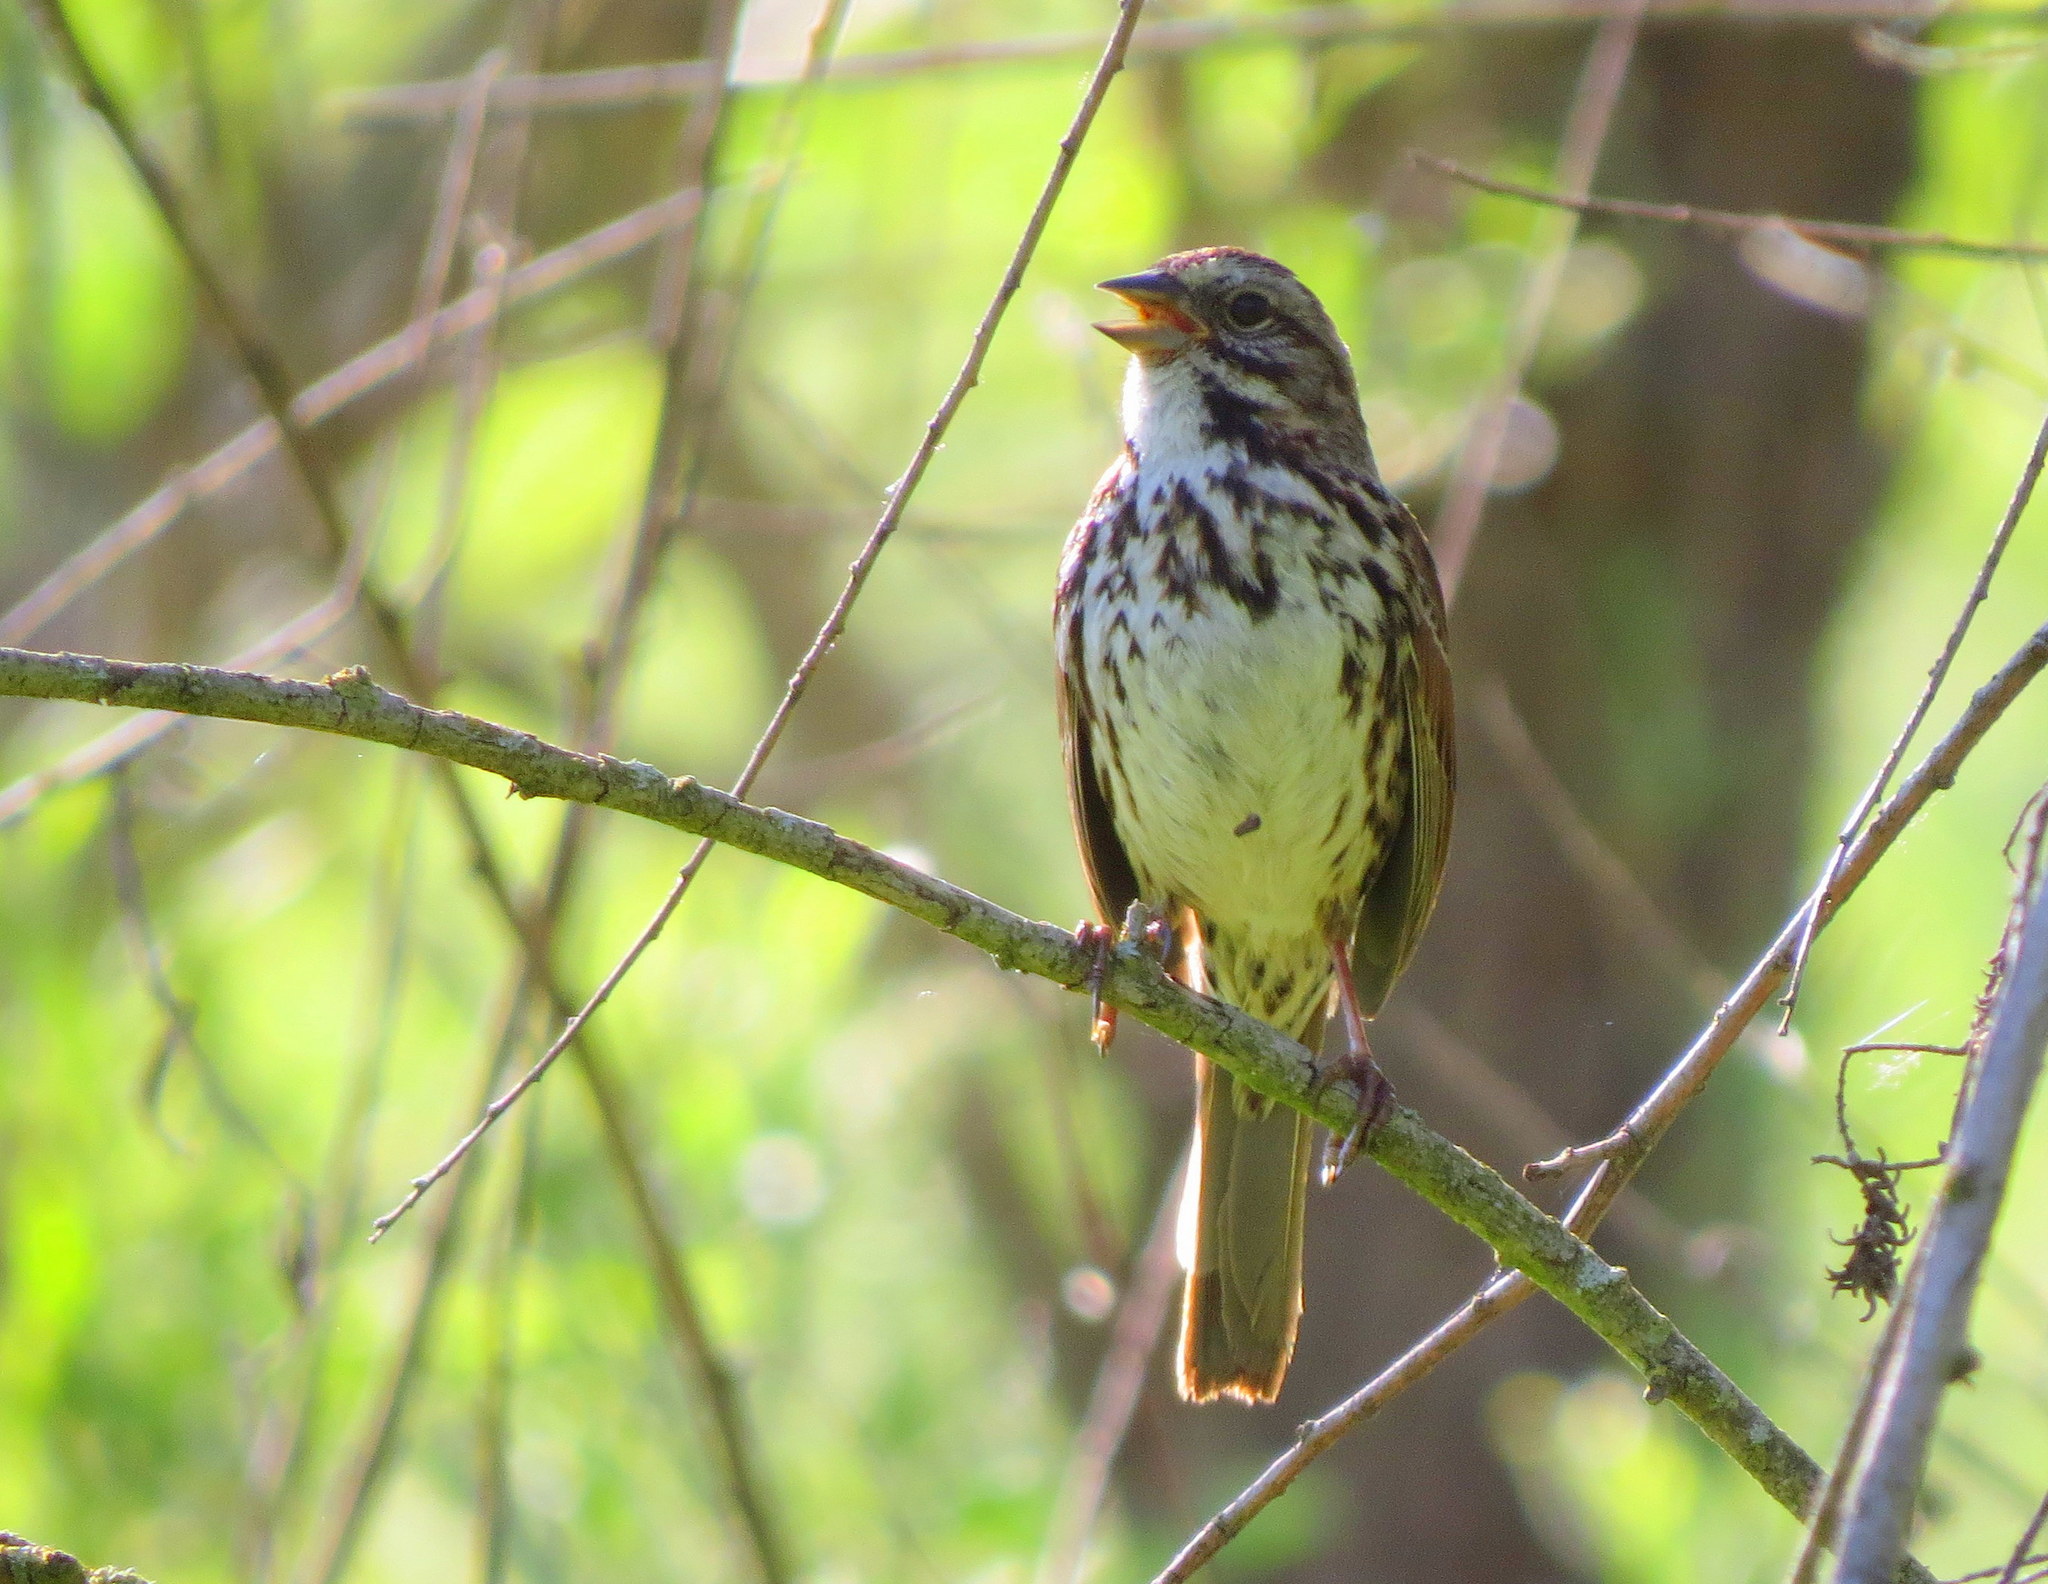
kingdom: Animalia
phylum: Chordata
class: Aves
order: Passeriformes
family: Passerellidae
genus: Melospiza
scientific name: Melospiza melodia
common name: Song sparrow
